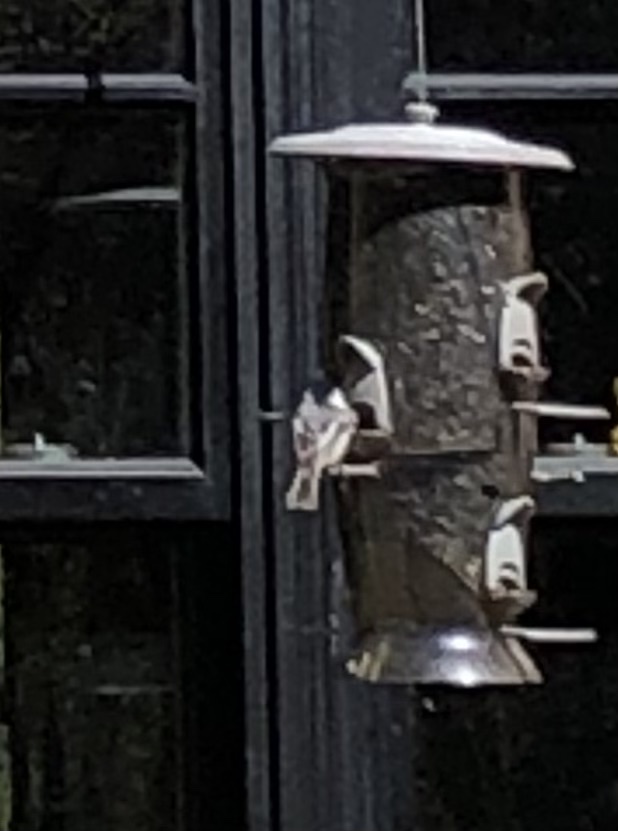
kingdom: Animalia
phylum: Chordata
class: Aves
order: Passeriformes
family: Paridae
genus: Poecile
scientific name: Poecile atricapillus
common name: Black-capped chickadee
